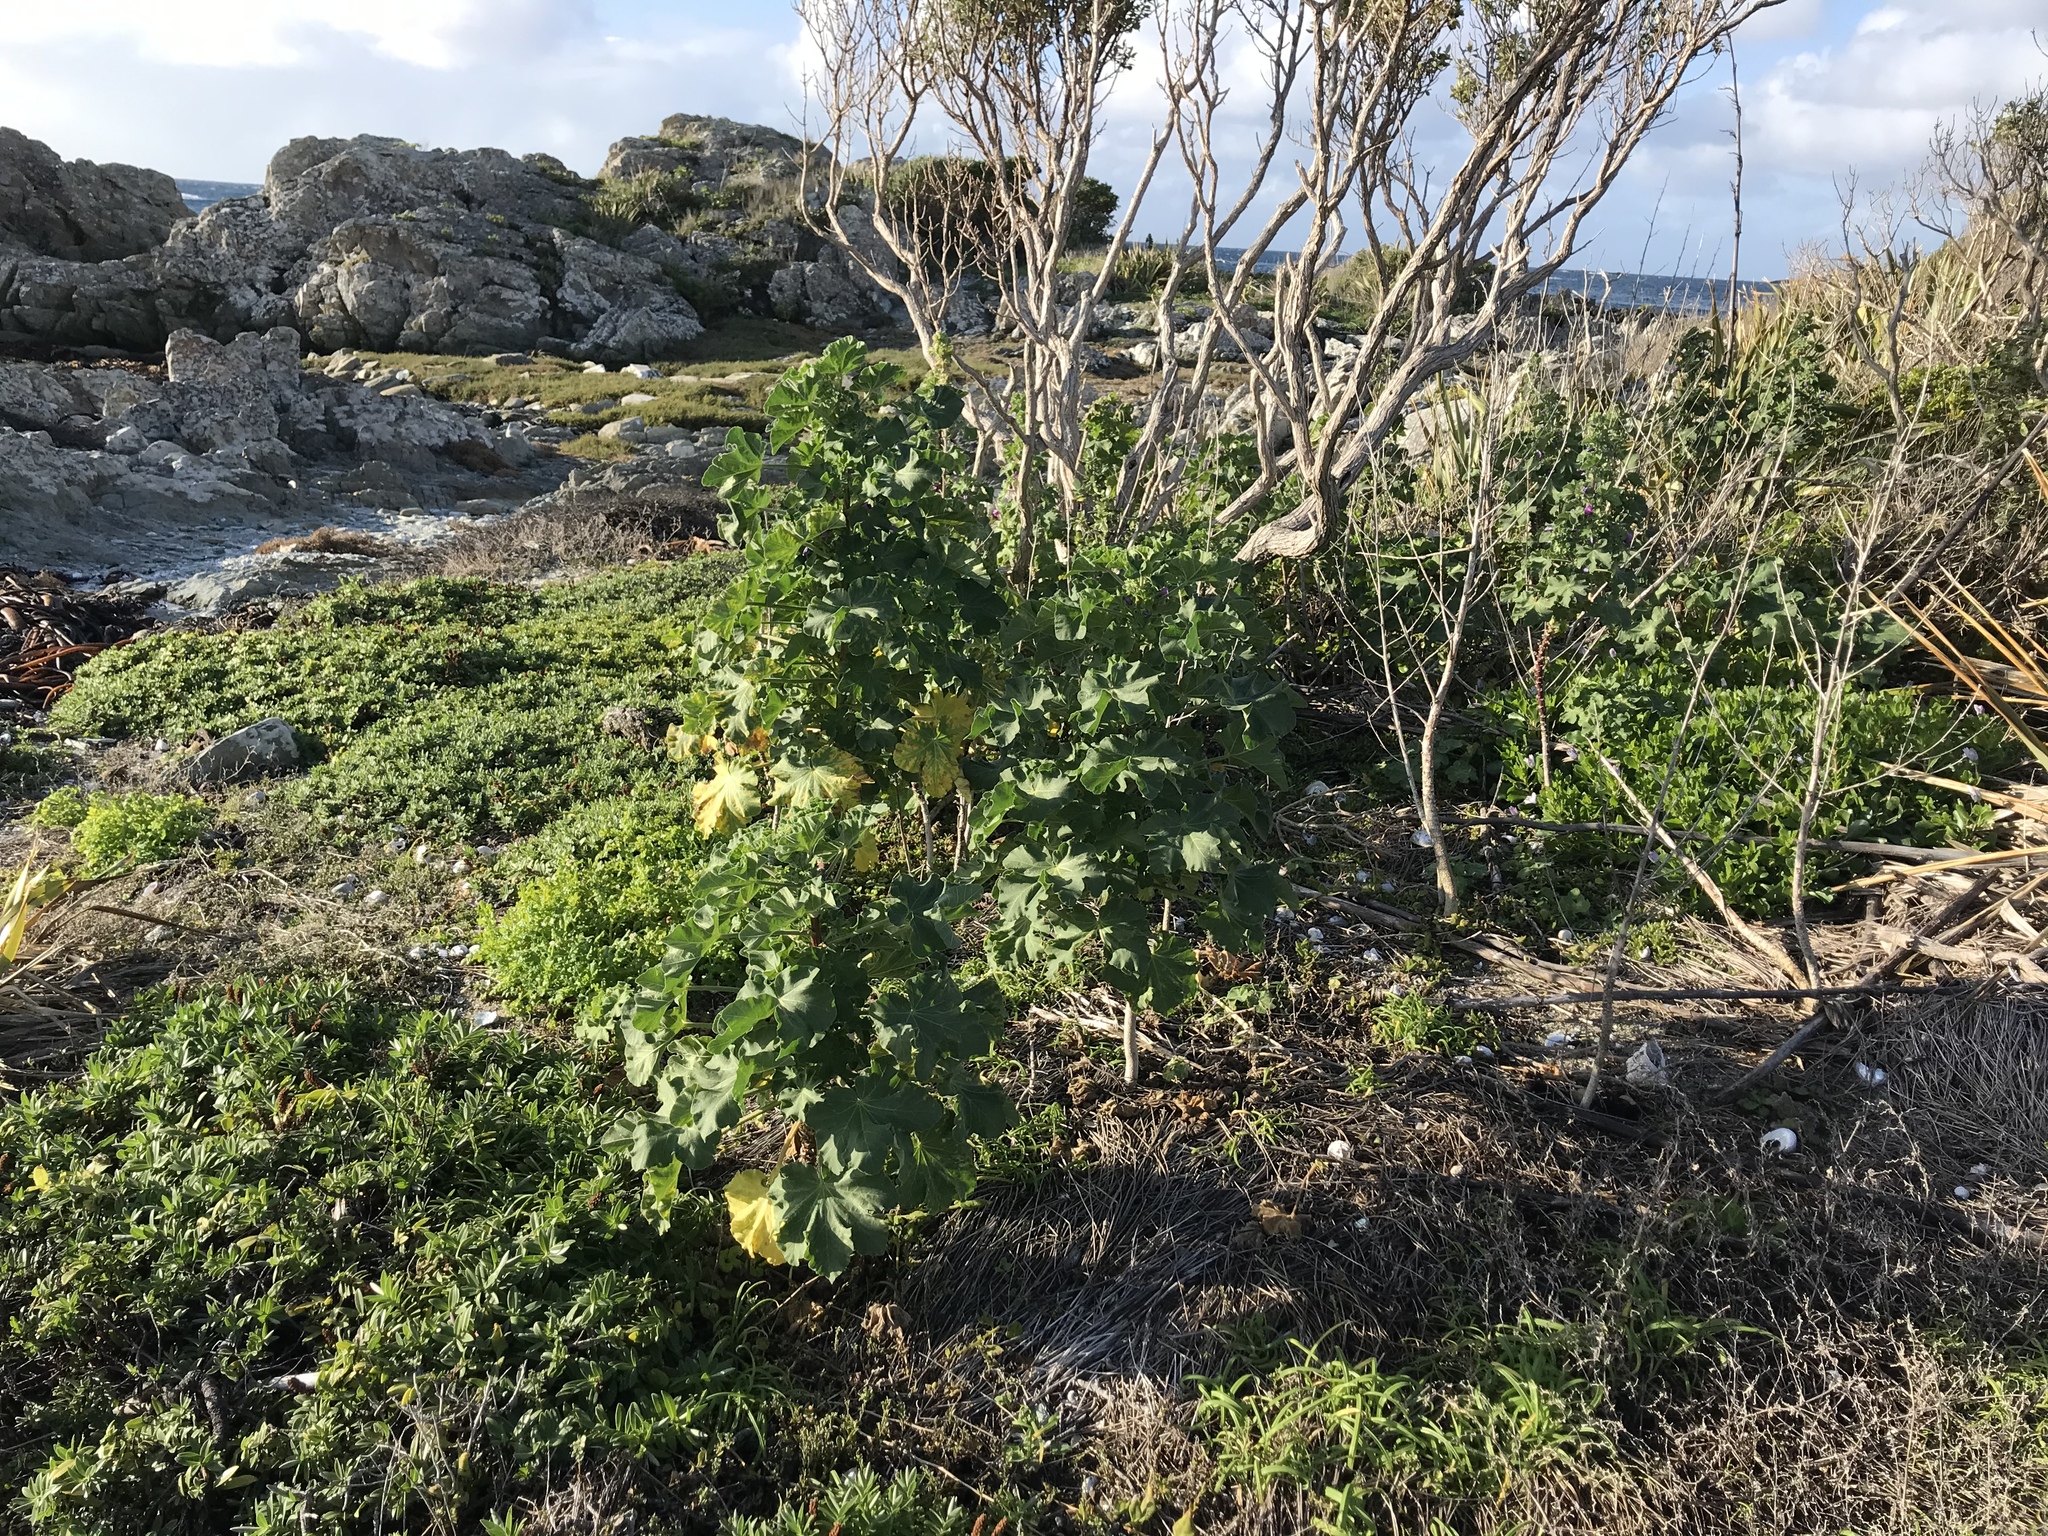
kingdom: Plantae
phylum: Tracheophyta
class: Magnoliopsida
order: Malvales
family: Malvaceae
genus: Malva
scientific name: Malva arborea
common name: Tree mallow
